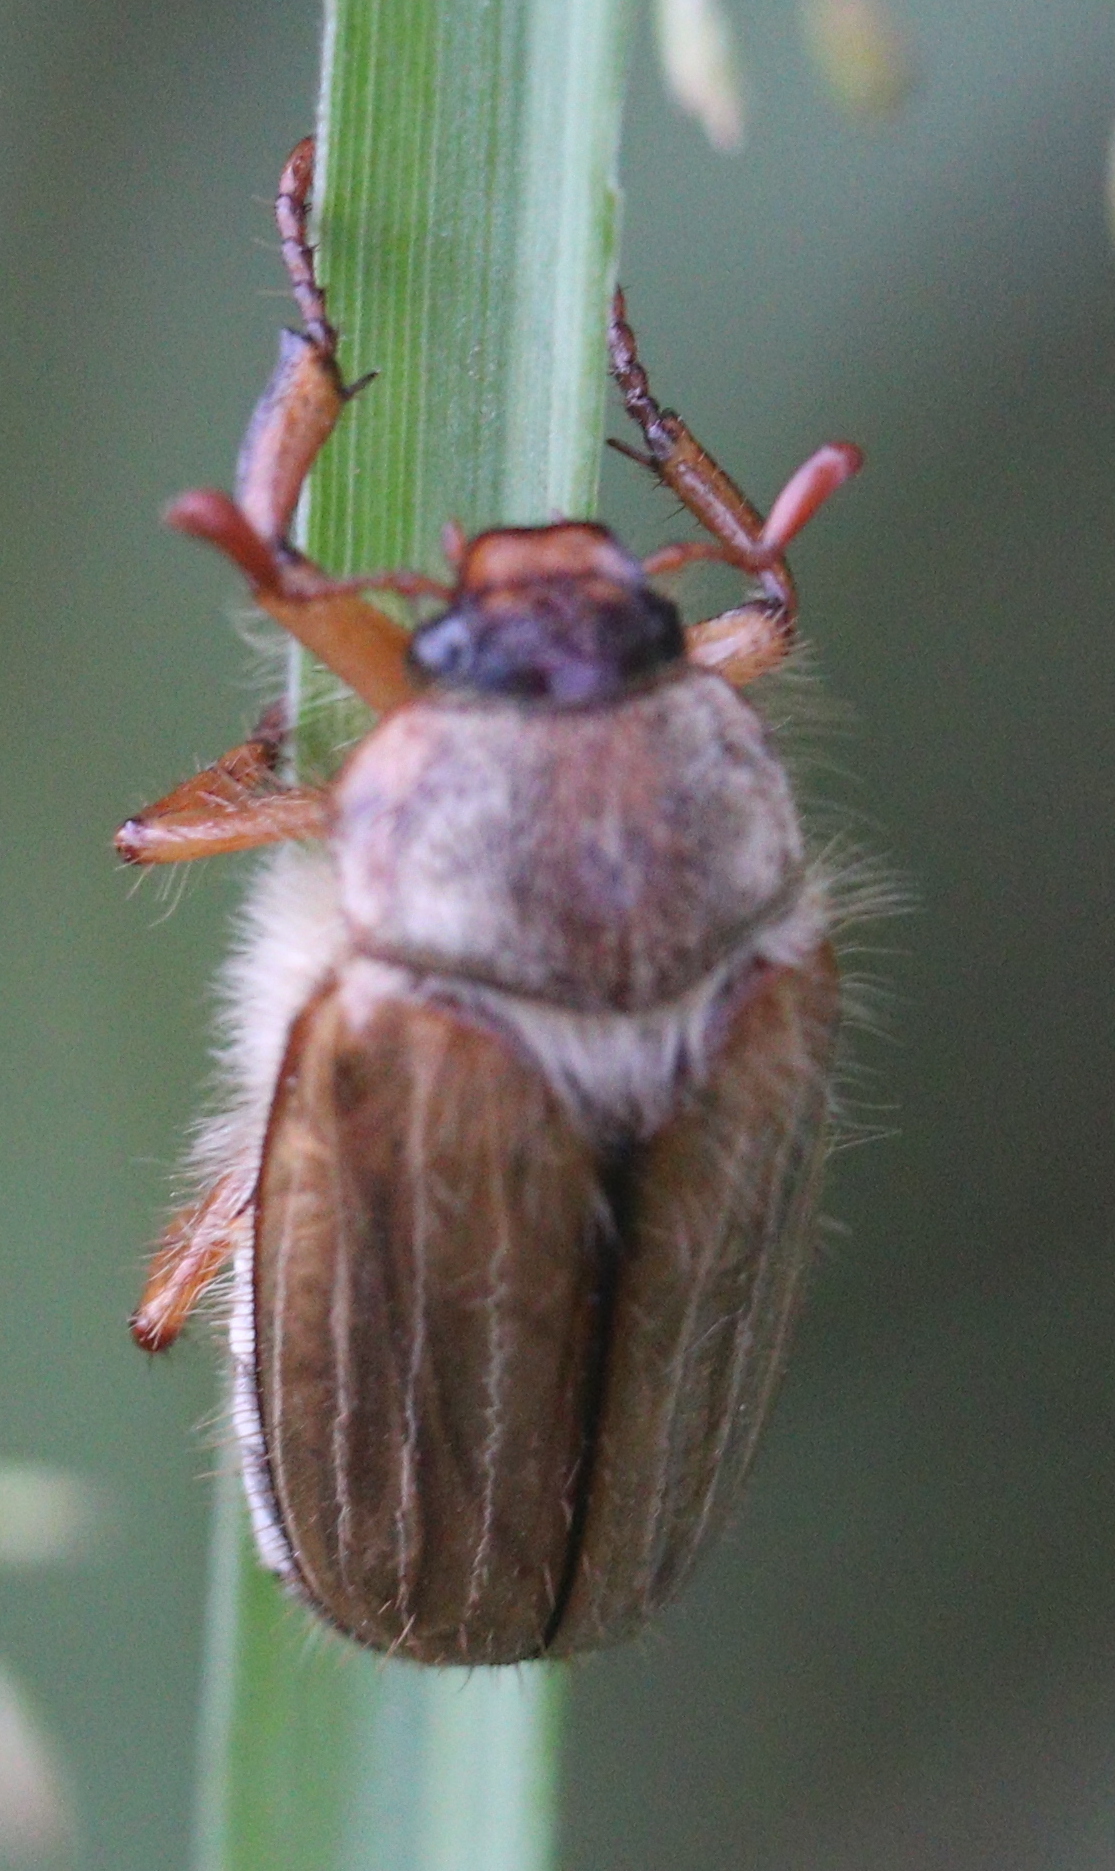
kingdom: Animalia
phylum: Arthropoda
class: Insecta
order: Coleoptera
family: Scarabaeidae
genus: Amphimallon
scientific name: Amphimallon solstitiale
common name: Summer chafer
